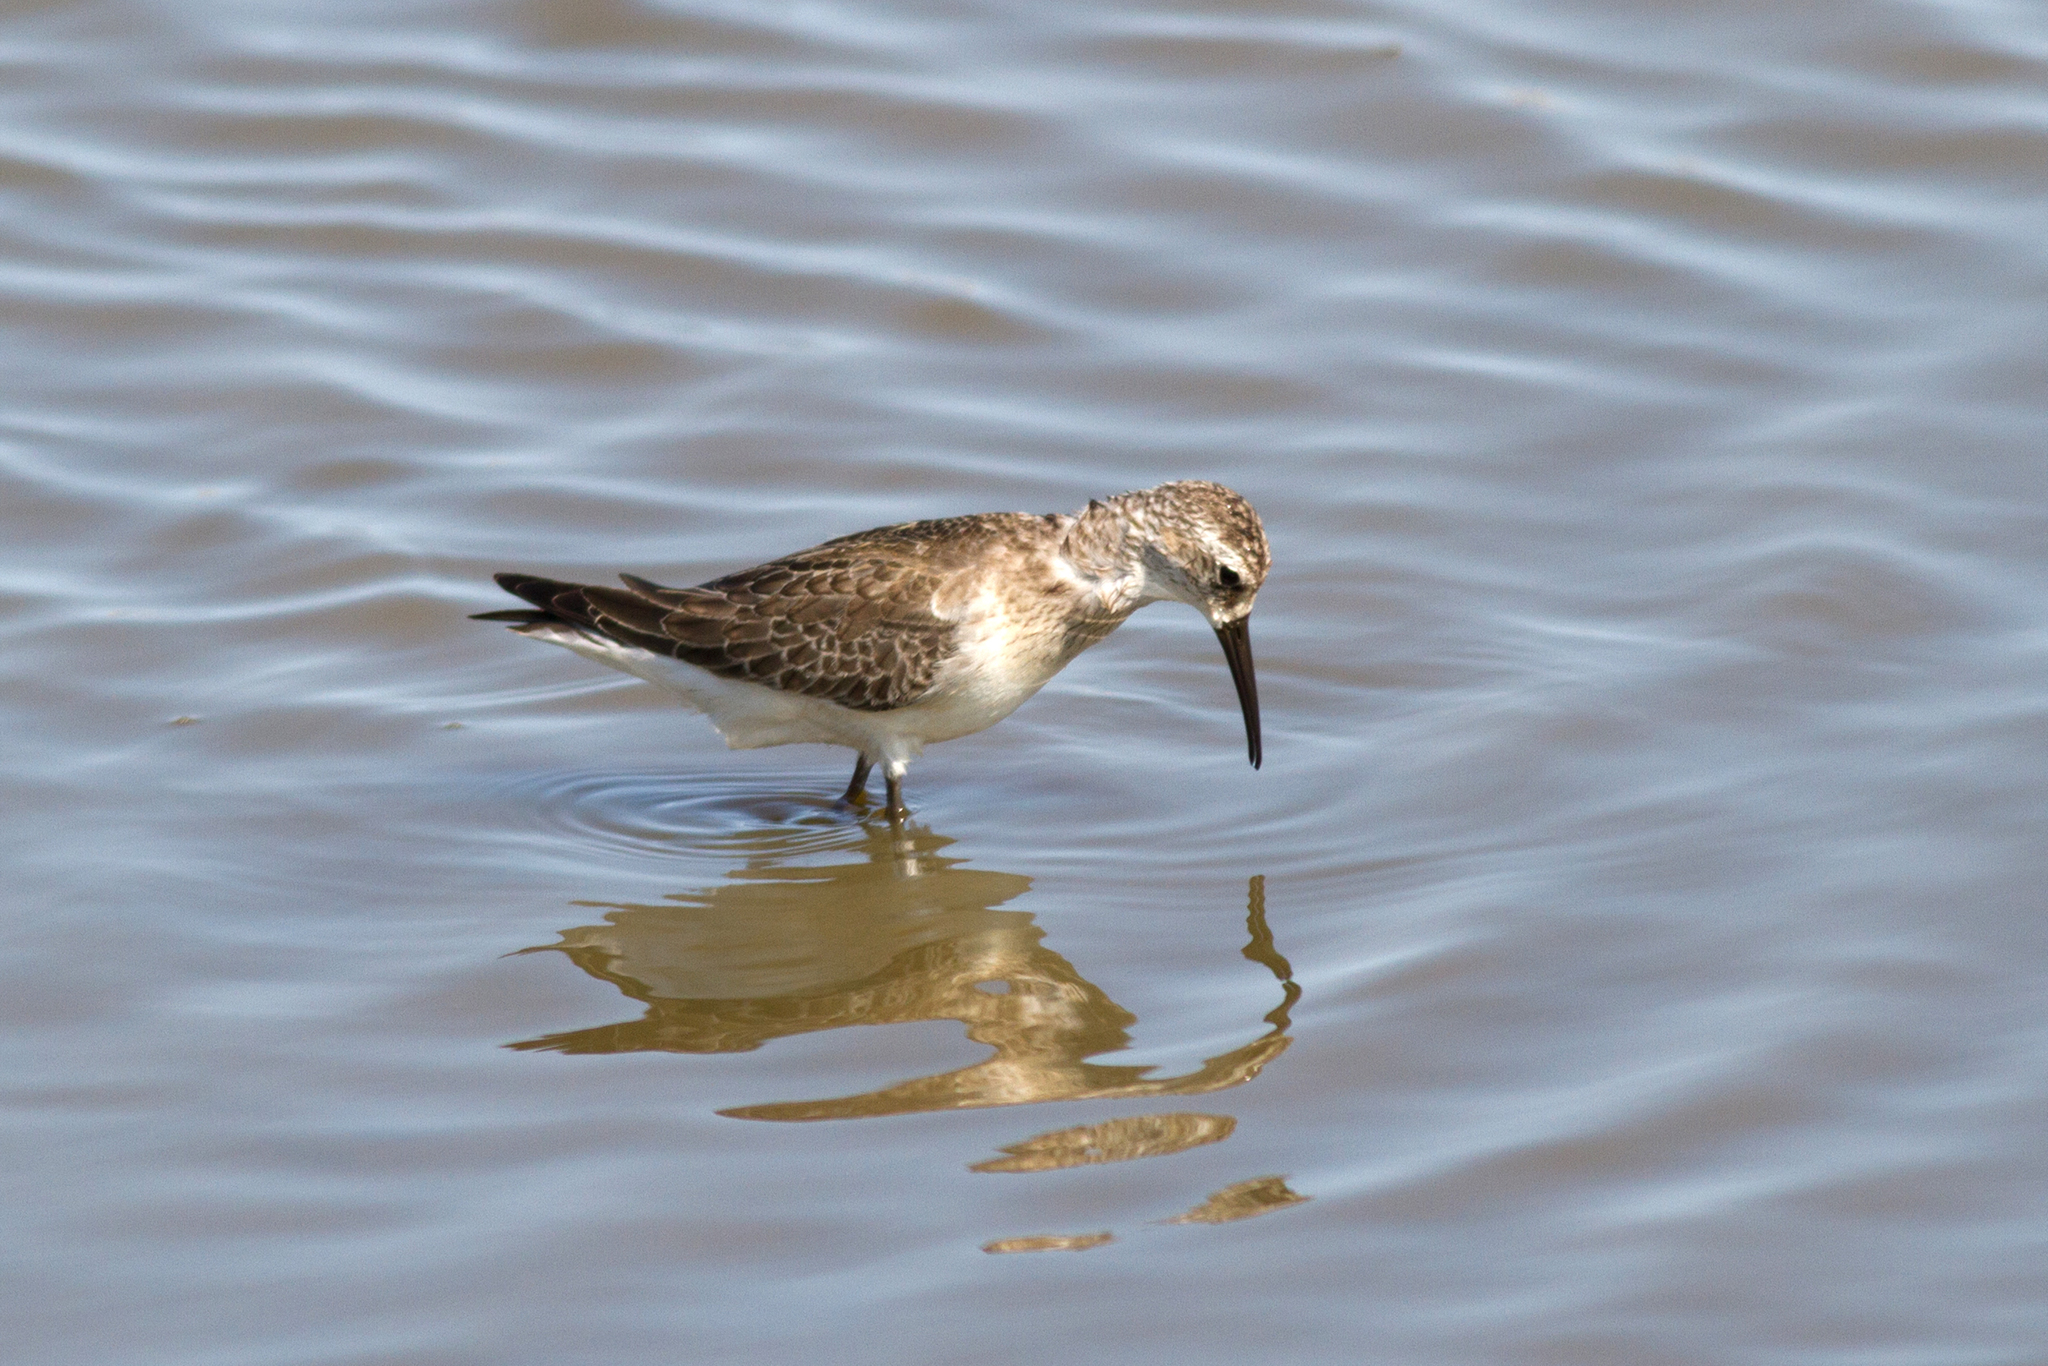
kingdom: Animalia
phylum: Chordata
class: Aves
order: Charadriiformes
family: Scolopacidae
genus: Calidris
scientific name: Calidris ferruginea
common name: Curlew sandpiper
